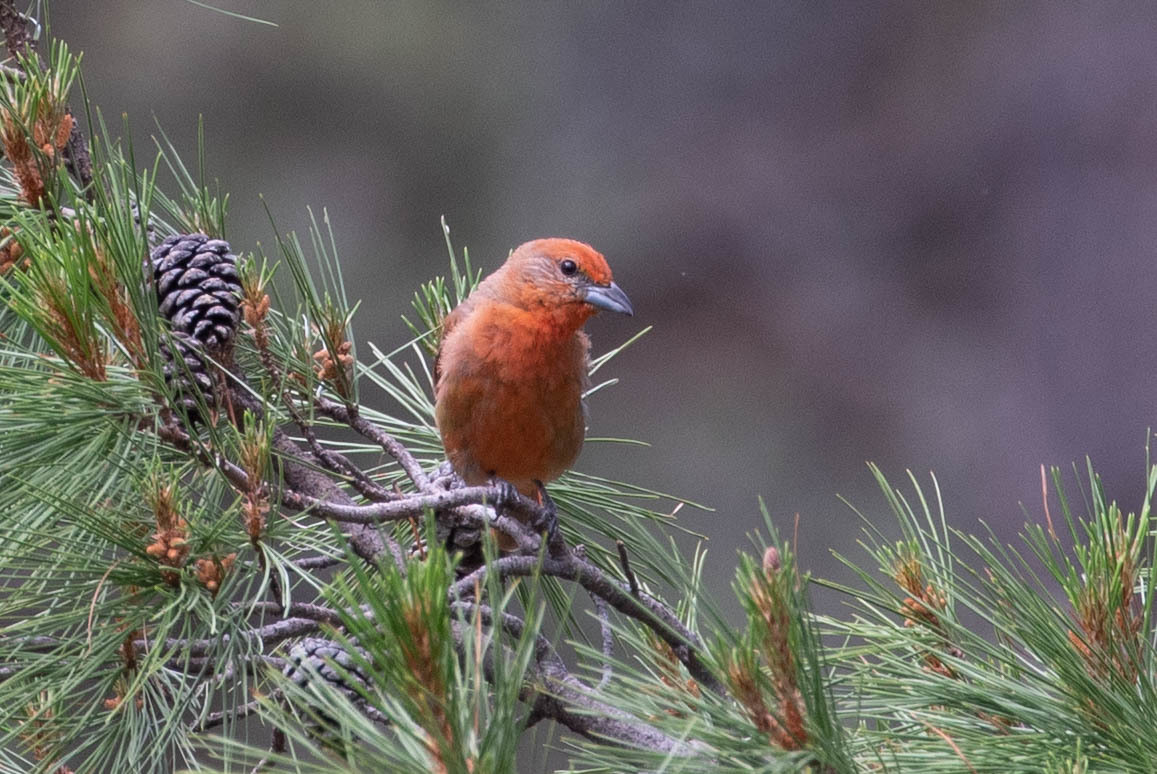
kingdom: Animalia
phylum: Chordata
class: Aves
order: Passeriformes
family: Cardinalidae
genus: Piranga
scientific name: Piranga flava
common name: Red tanager
